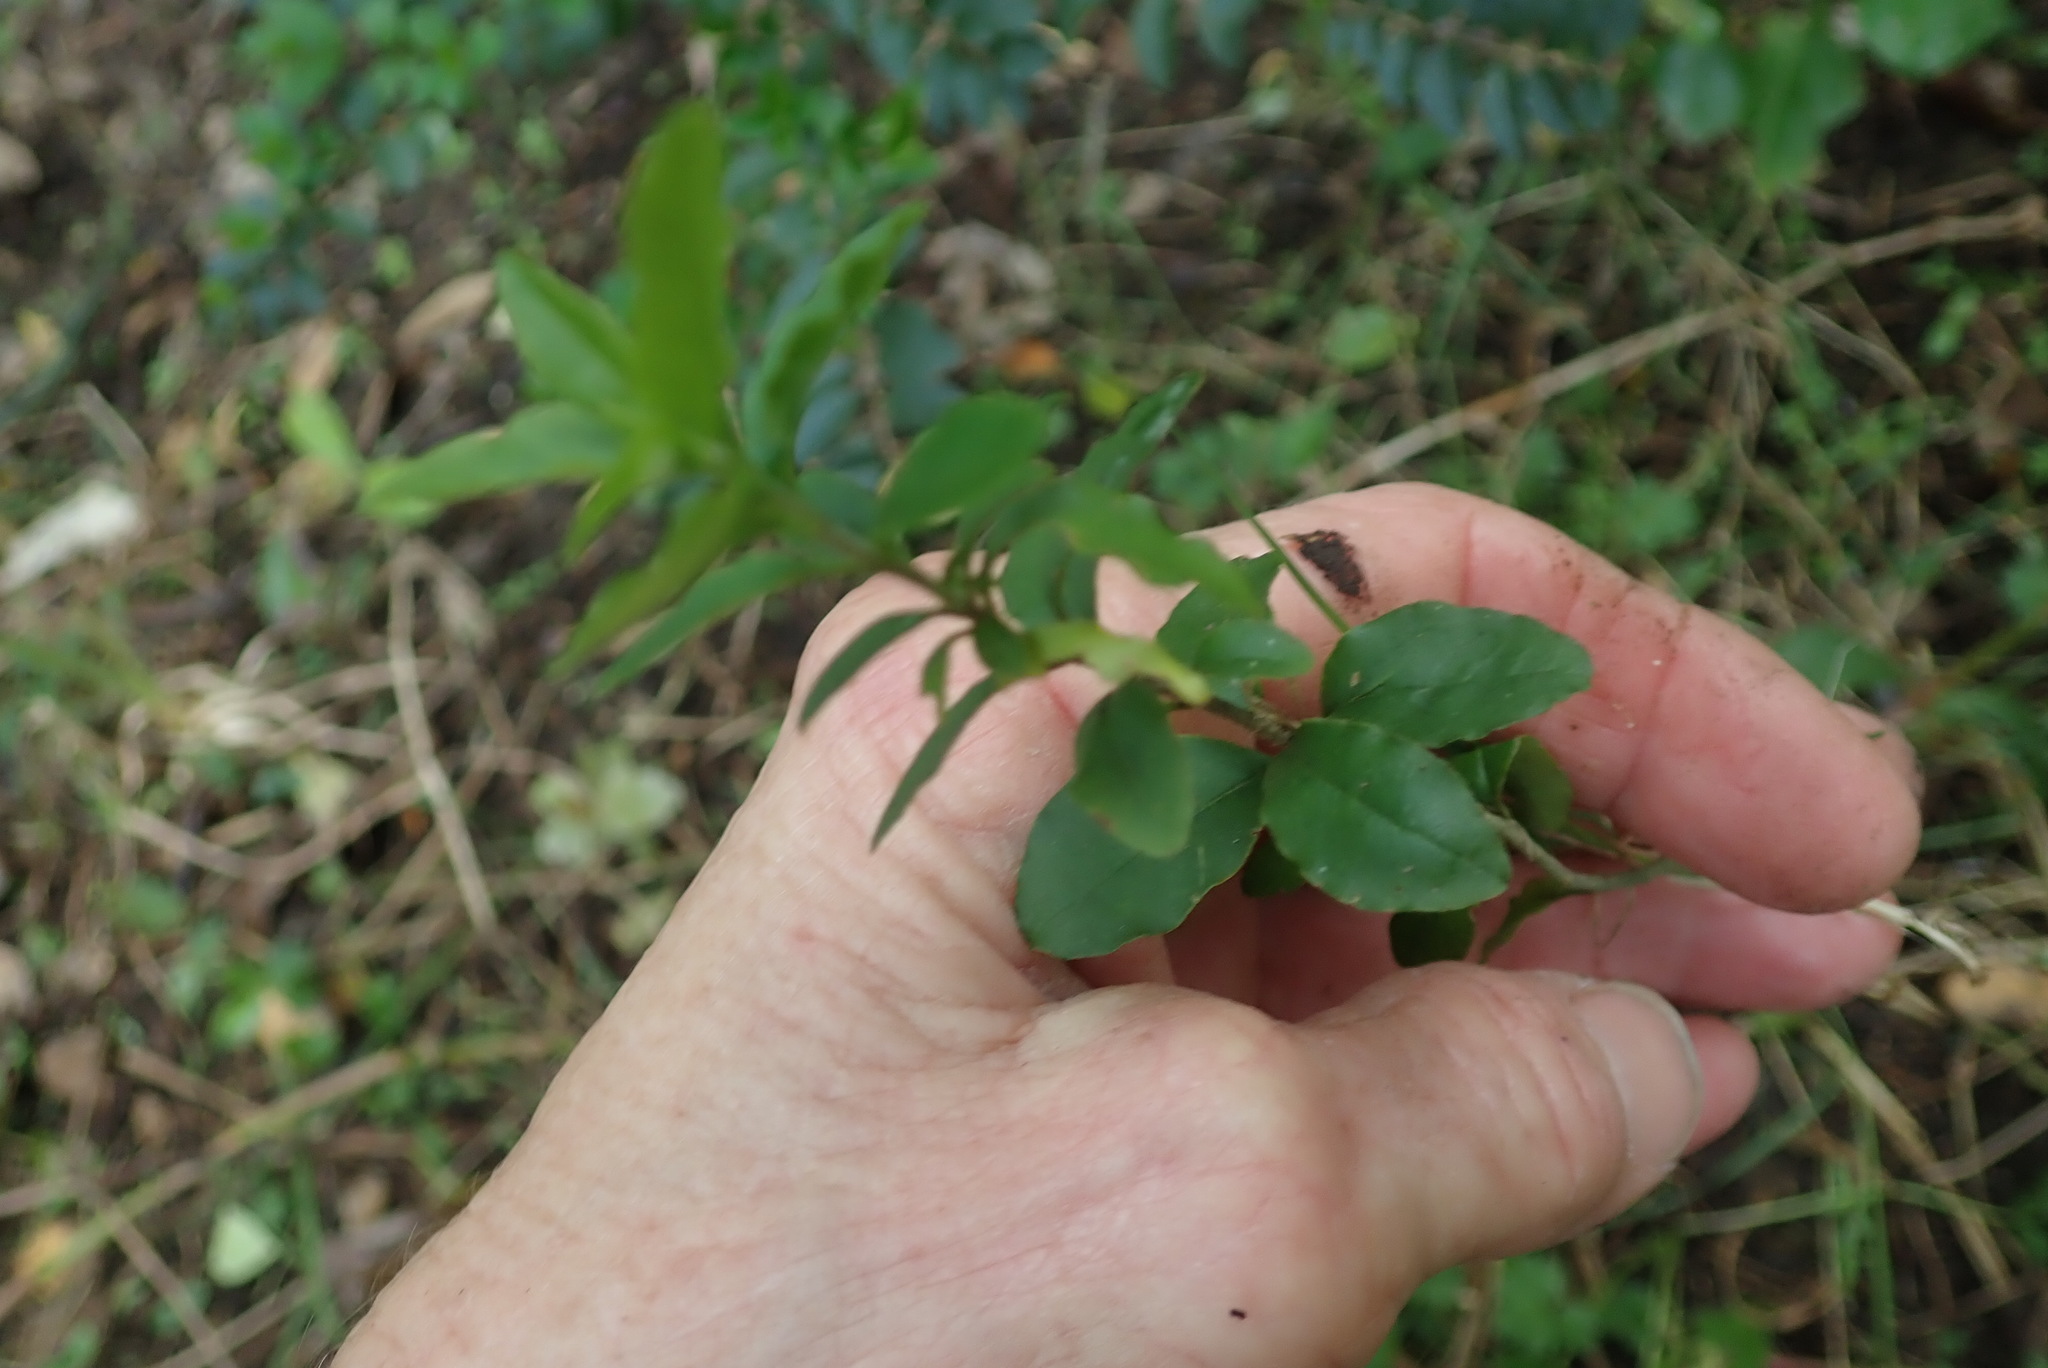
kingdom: Plantae
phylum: Tracheophyta
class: Magnoliopsida
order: Lamiales
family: Oleaceae
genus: Ligustrum
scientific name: Ligustrum sinense
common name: Chinese privet
